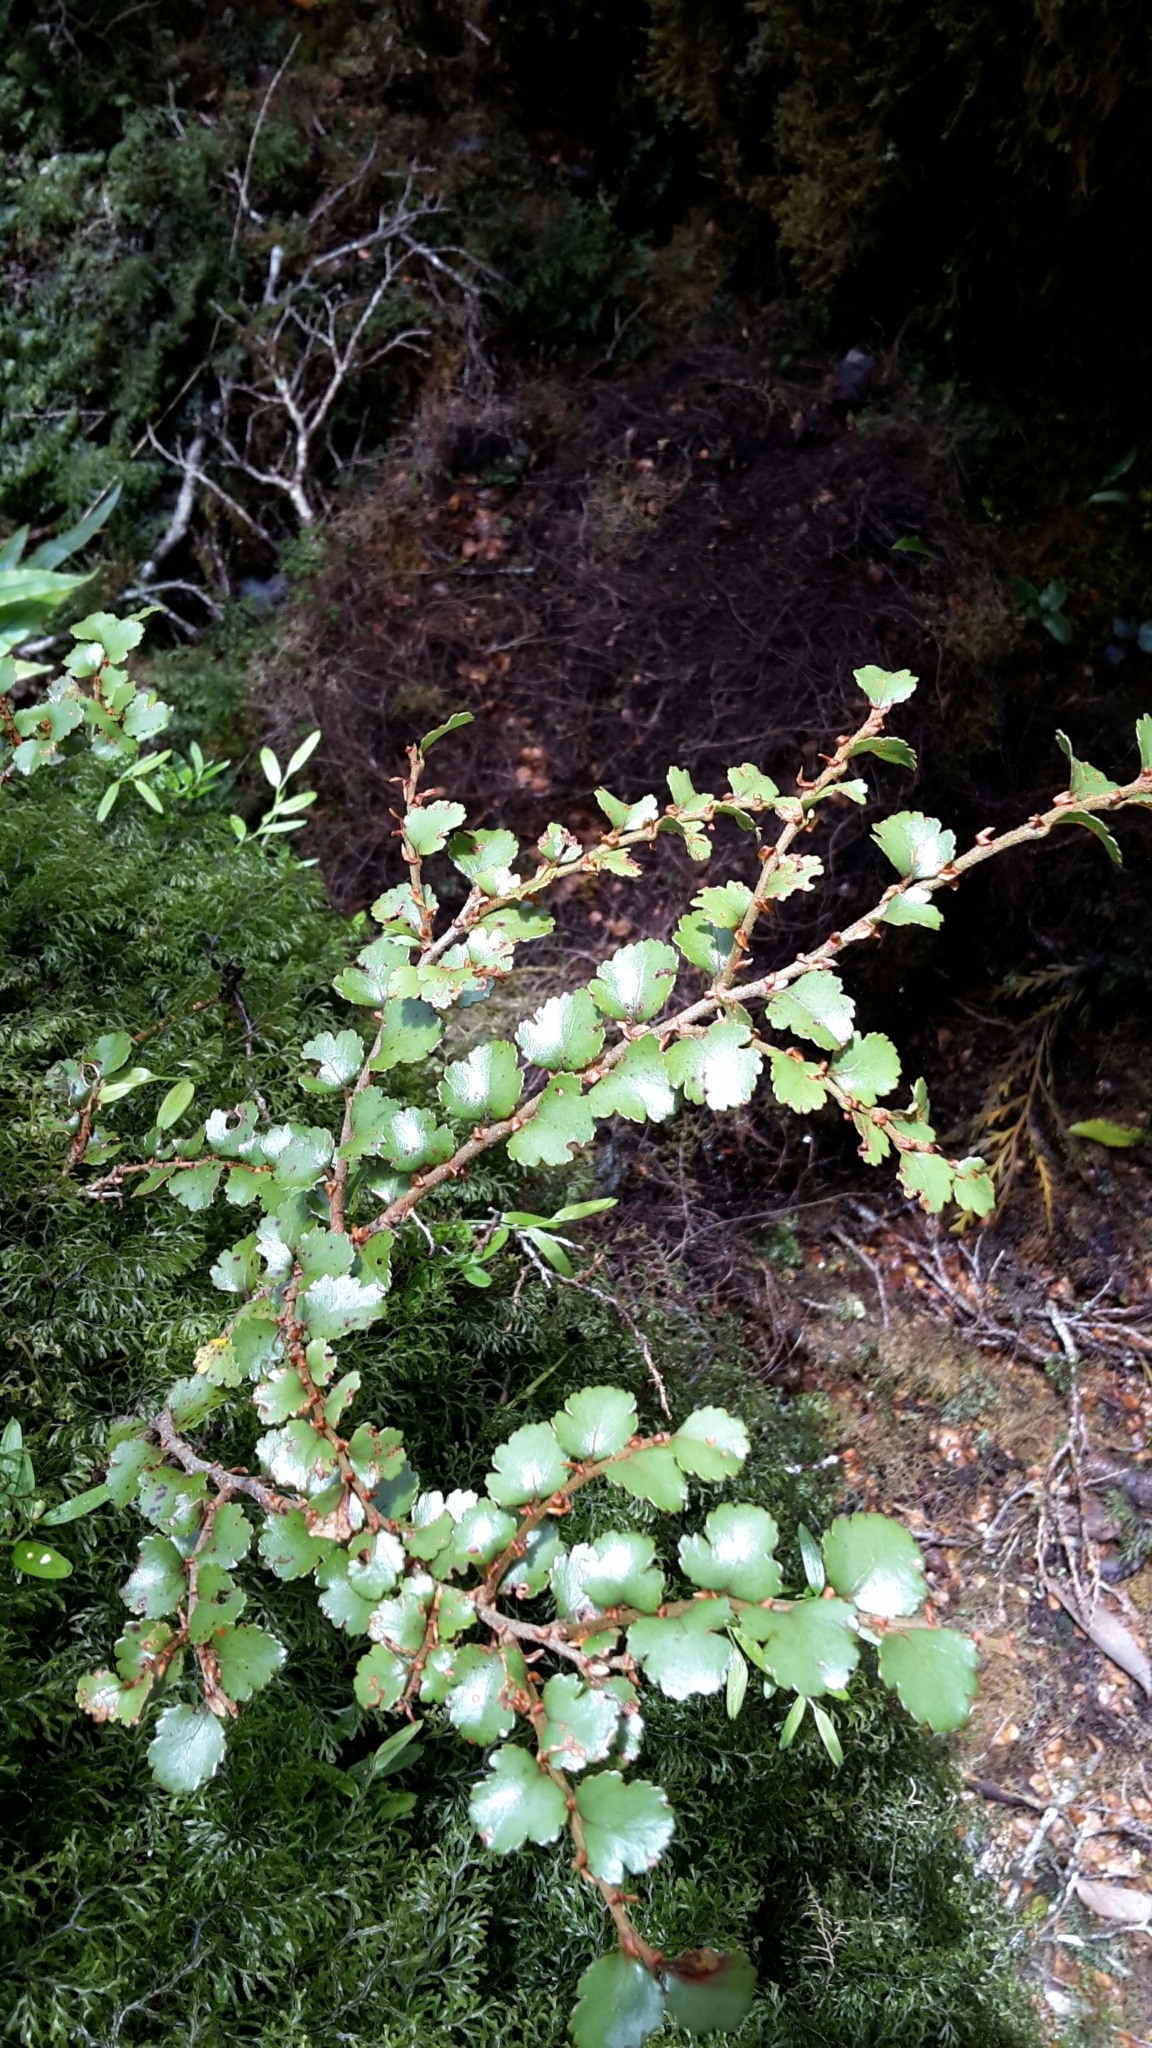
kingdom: Plantae
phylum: Tracheophyta
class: Magnoliopsida
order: Fagales
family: Nothofagaceae
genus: Nothofagus
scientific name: Nothofagus menziesii
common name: Silver beech
